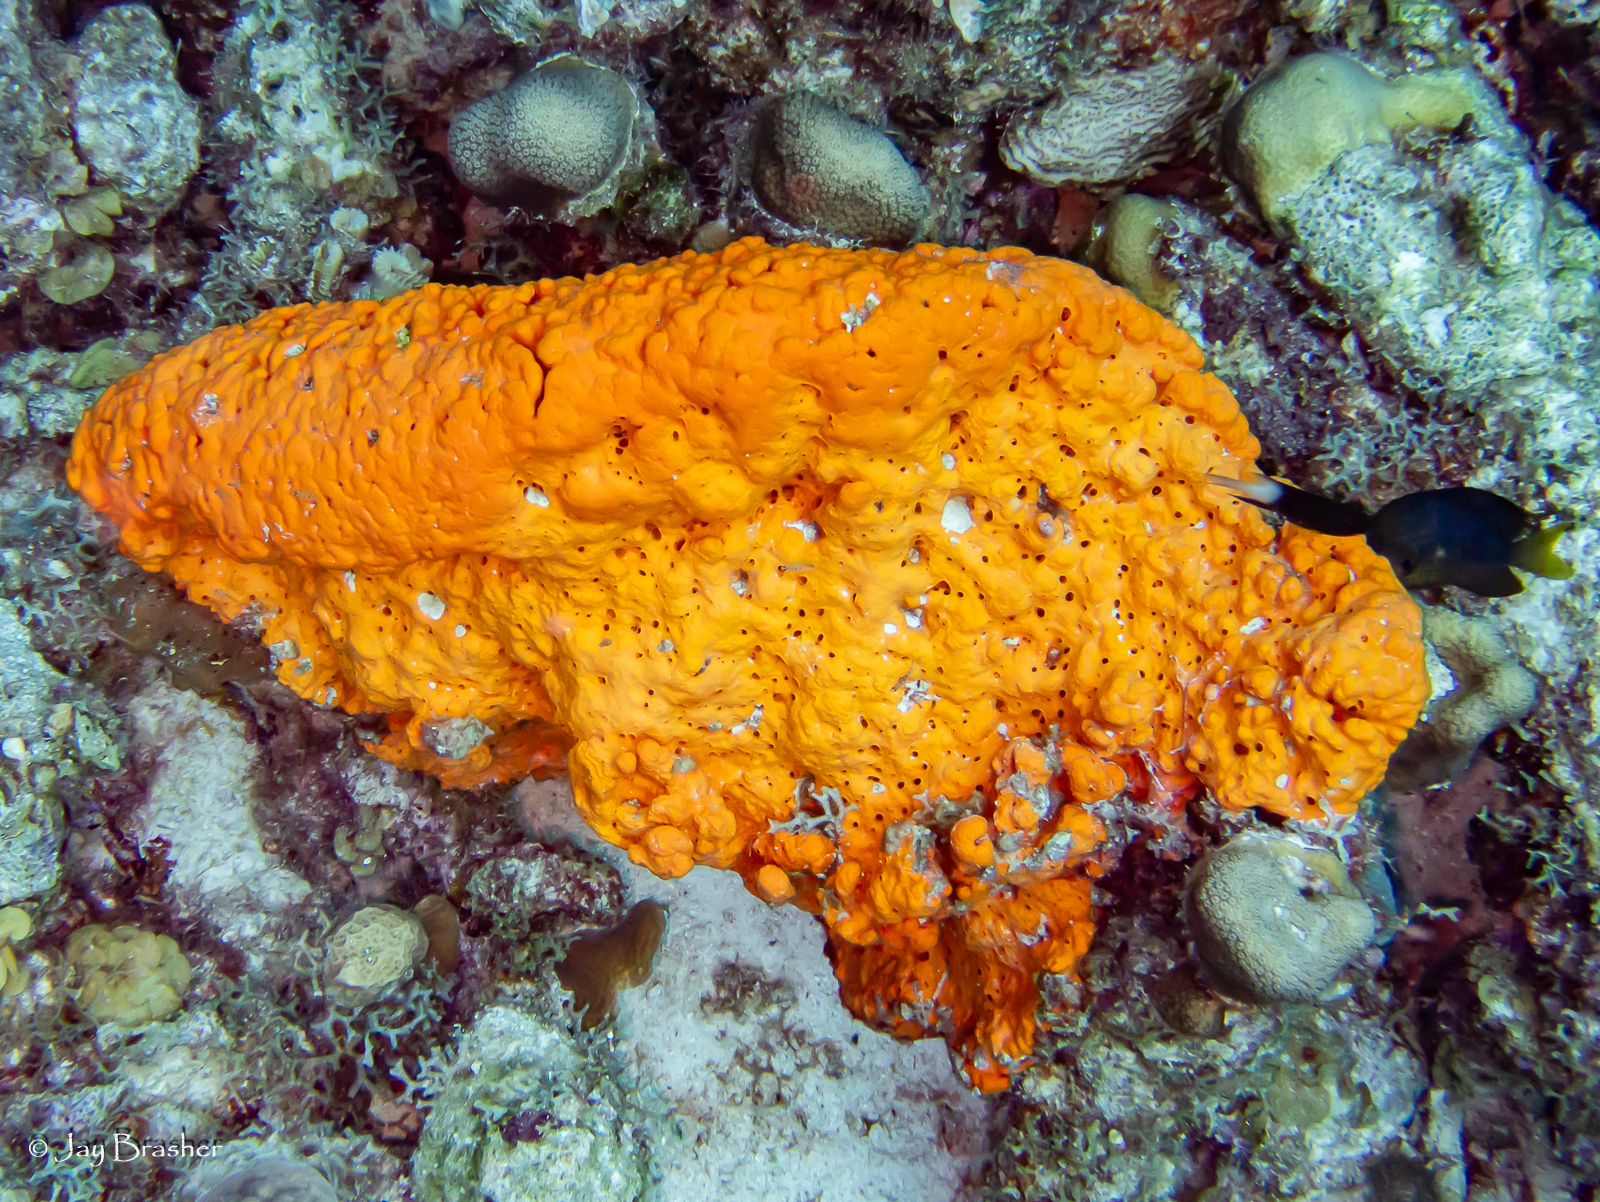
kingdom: Animalia
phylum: Porifera
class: Demospongiae
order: Agelasida
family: Agelasidae
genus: Agelas
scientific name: Agelas clathrodes
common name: Orange elephant ear sponge
